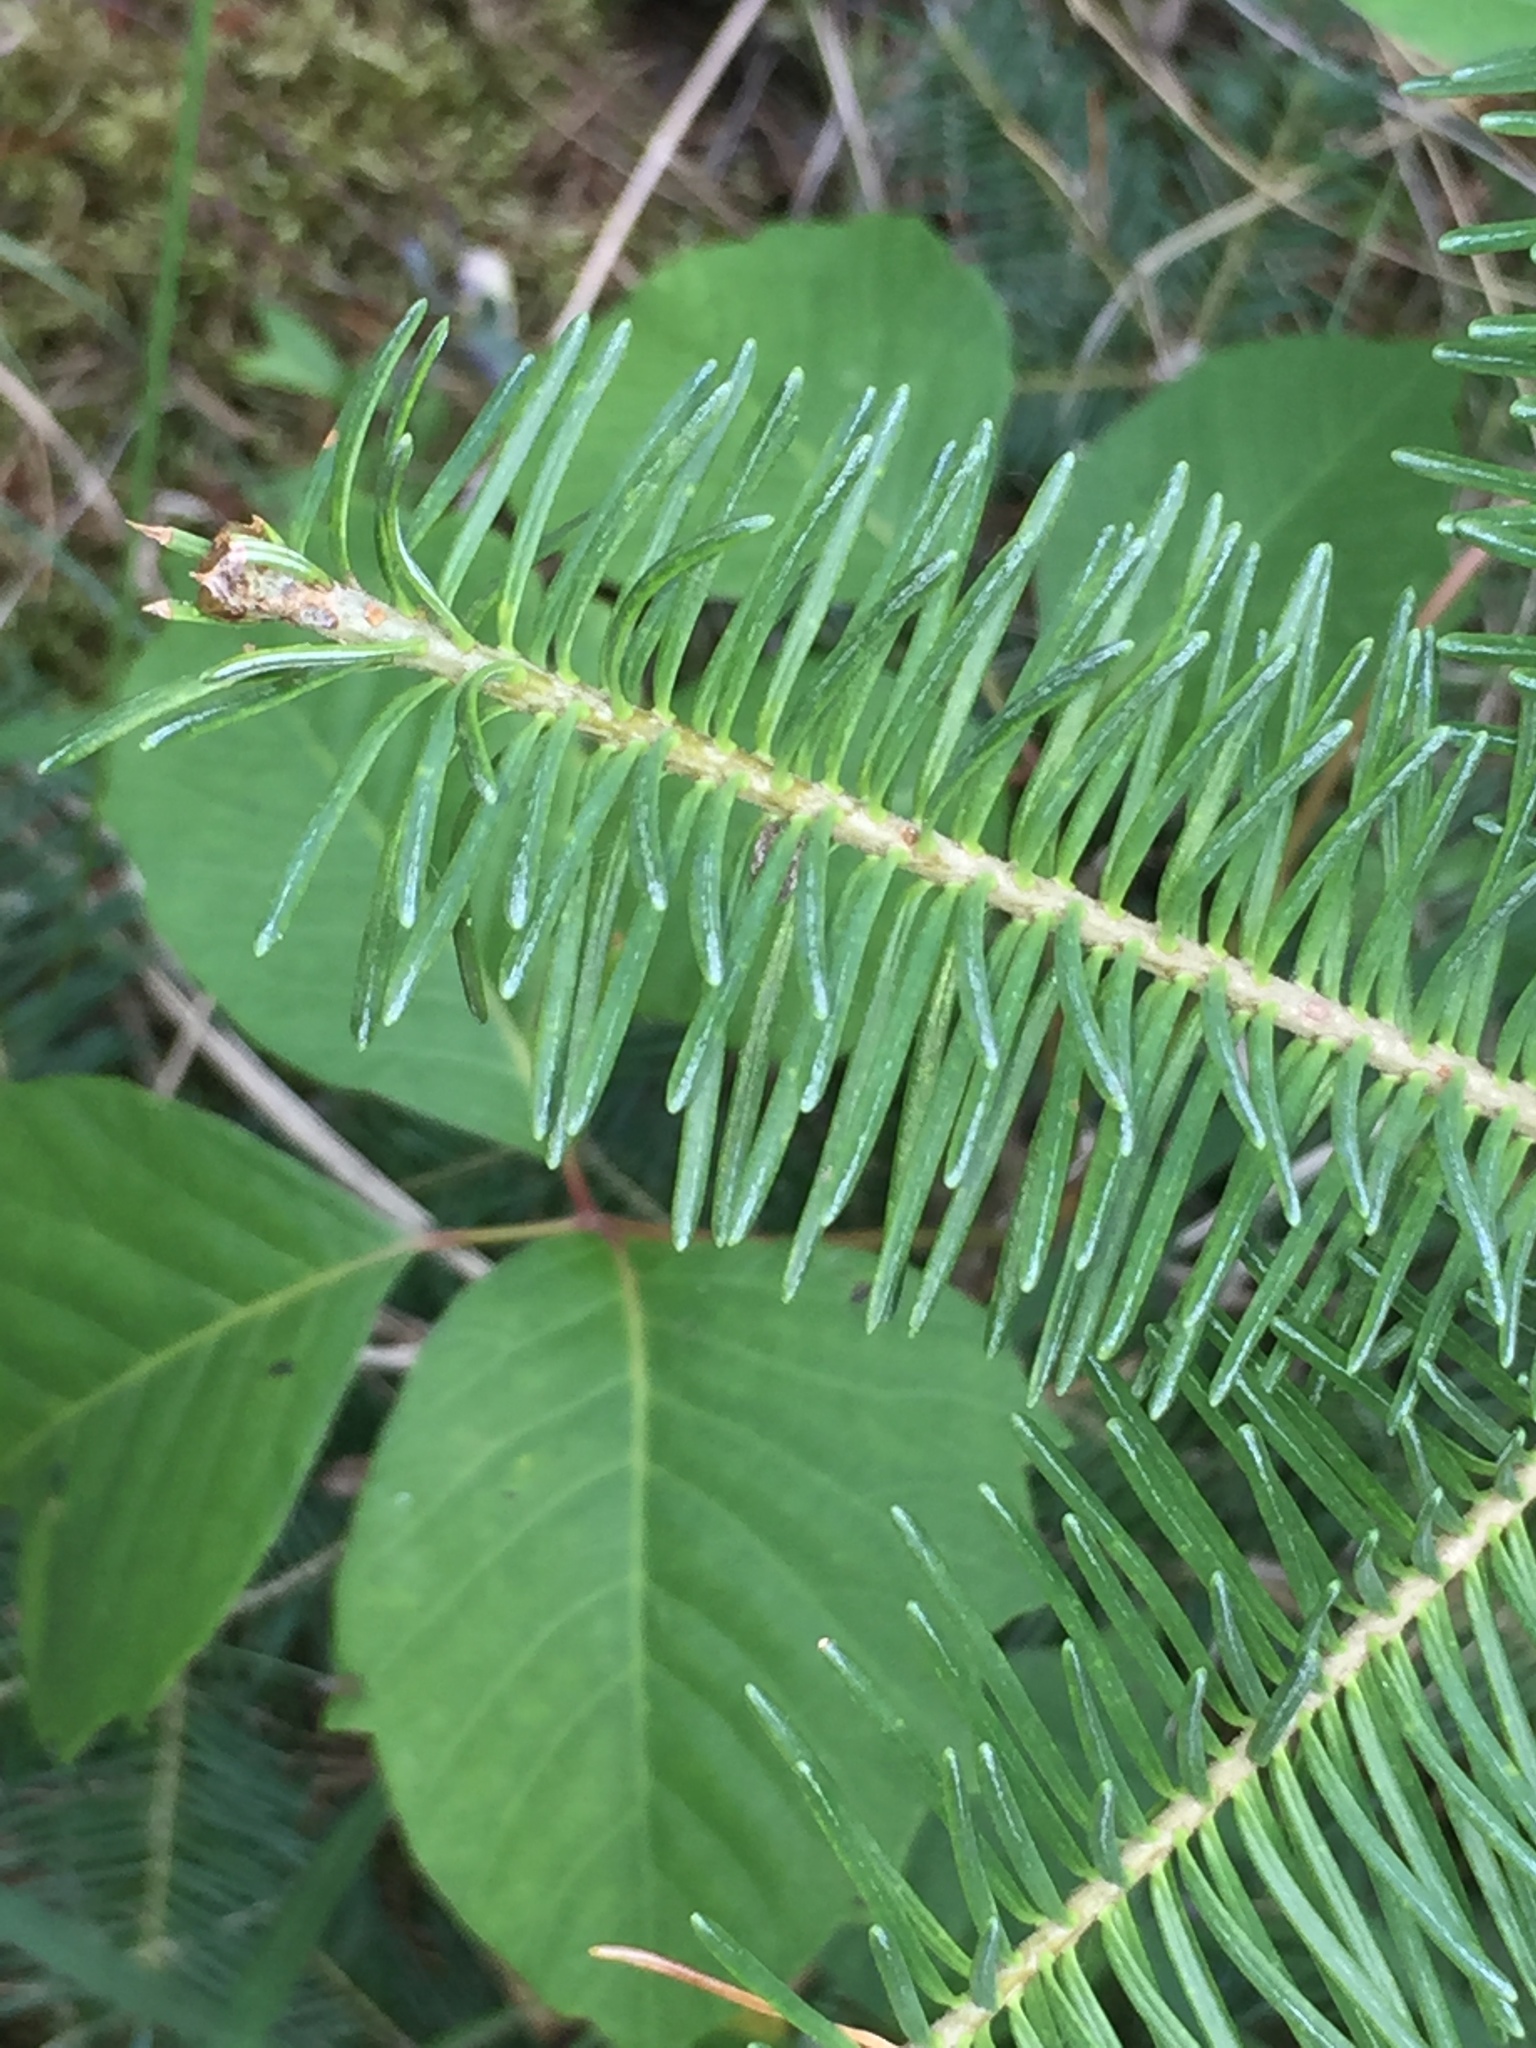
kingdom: Plantae
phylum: Tracheophyta
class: Pinopsida
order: Pinales
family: Pinaceae
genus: Abies
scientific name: Abies balsamea
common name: Balsam fir
